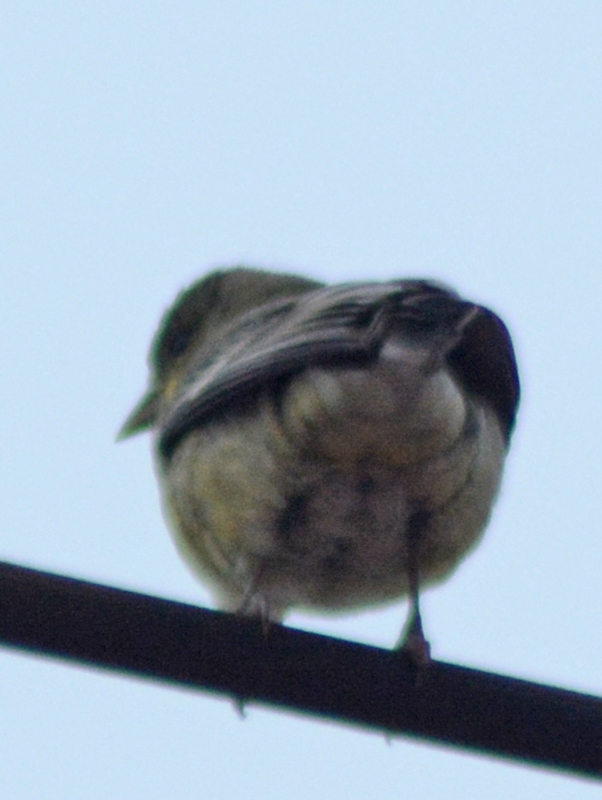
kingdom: Animalia
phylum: Chordata
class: Aves
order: Passeriformes
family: Fringillidae
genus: Spinus
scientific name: Spinus psaltria
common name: Lesser goldfinch
